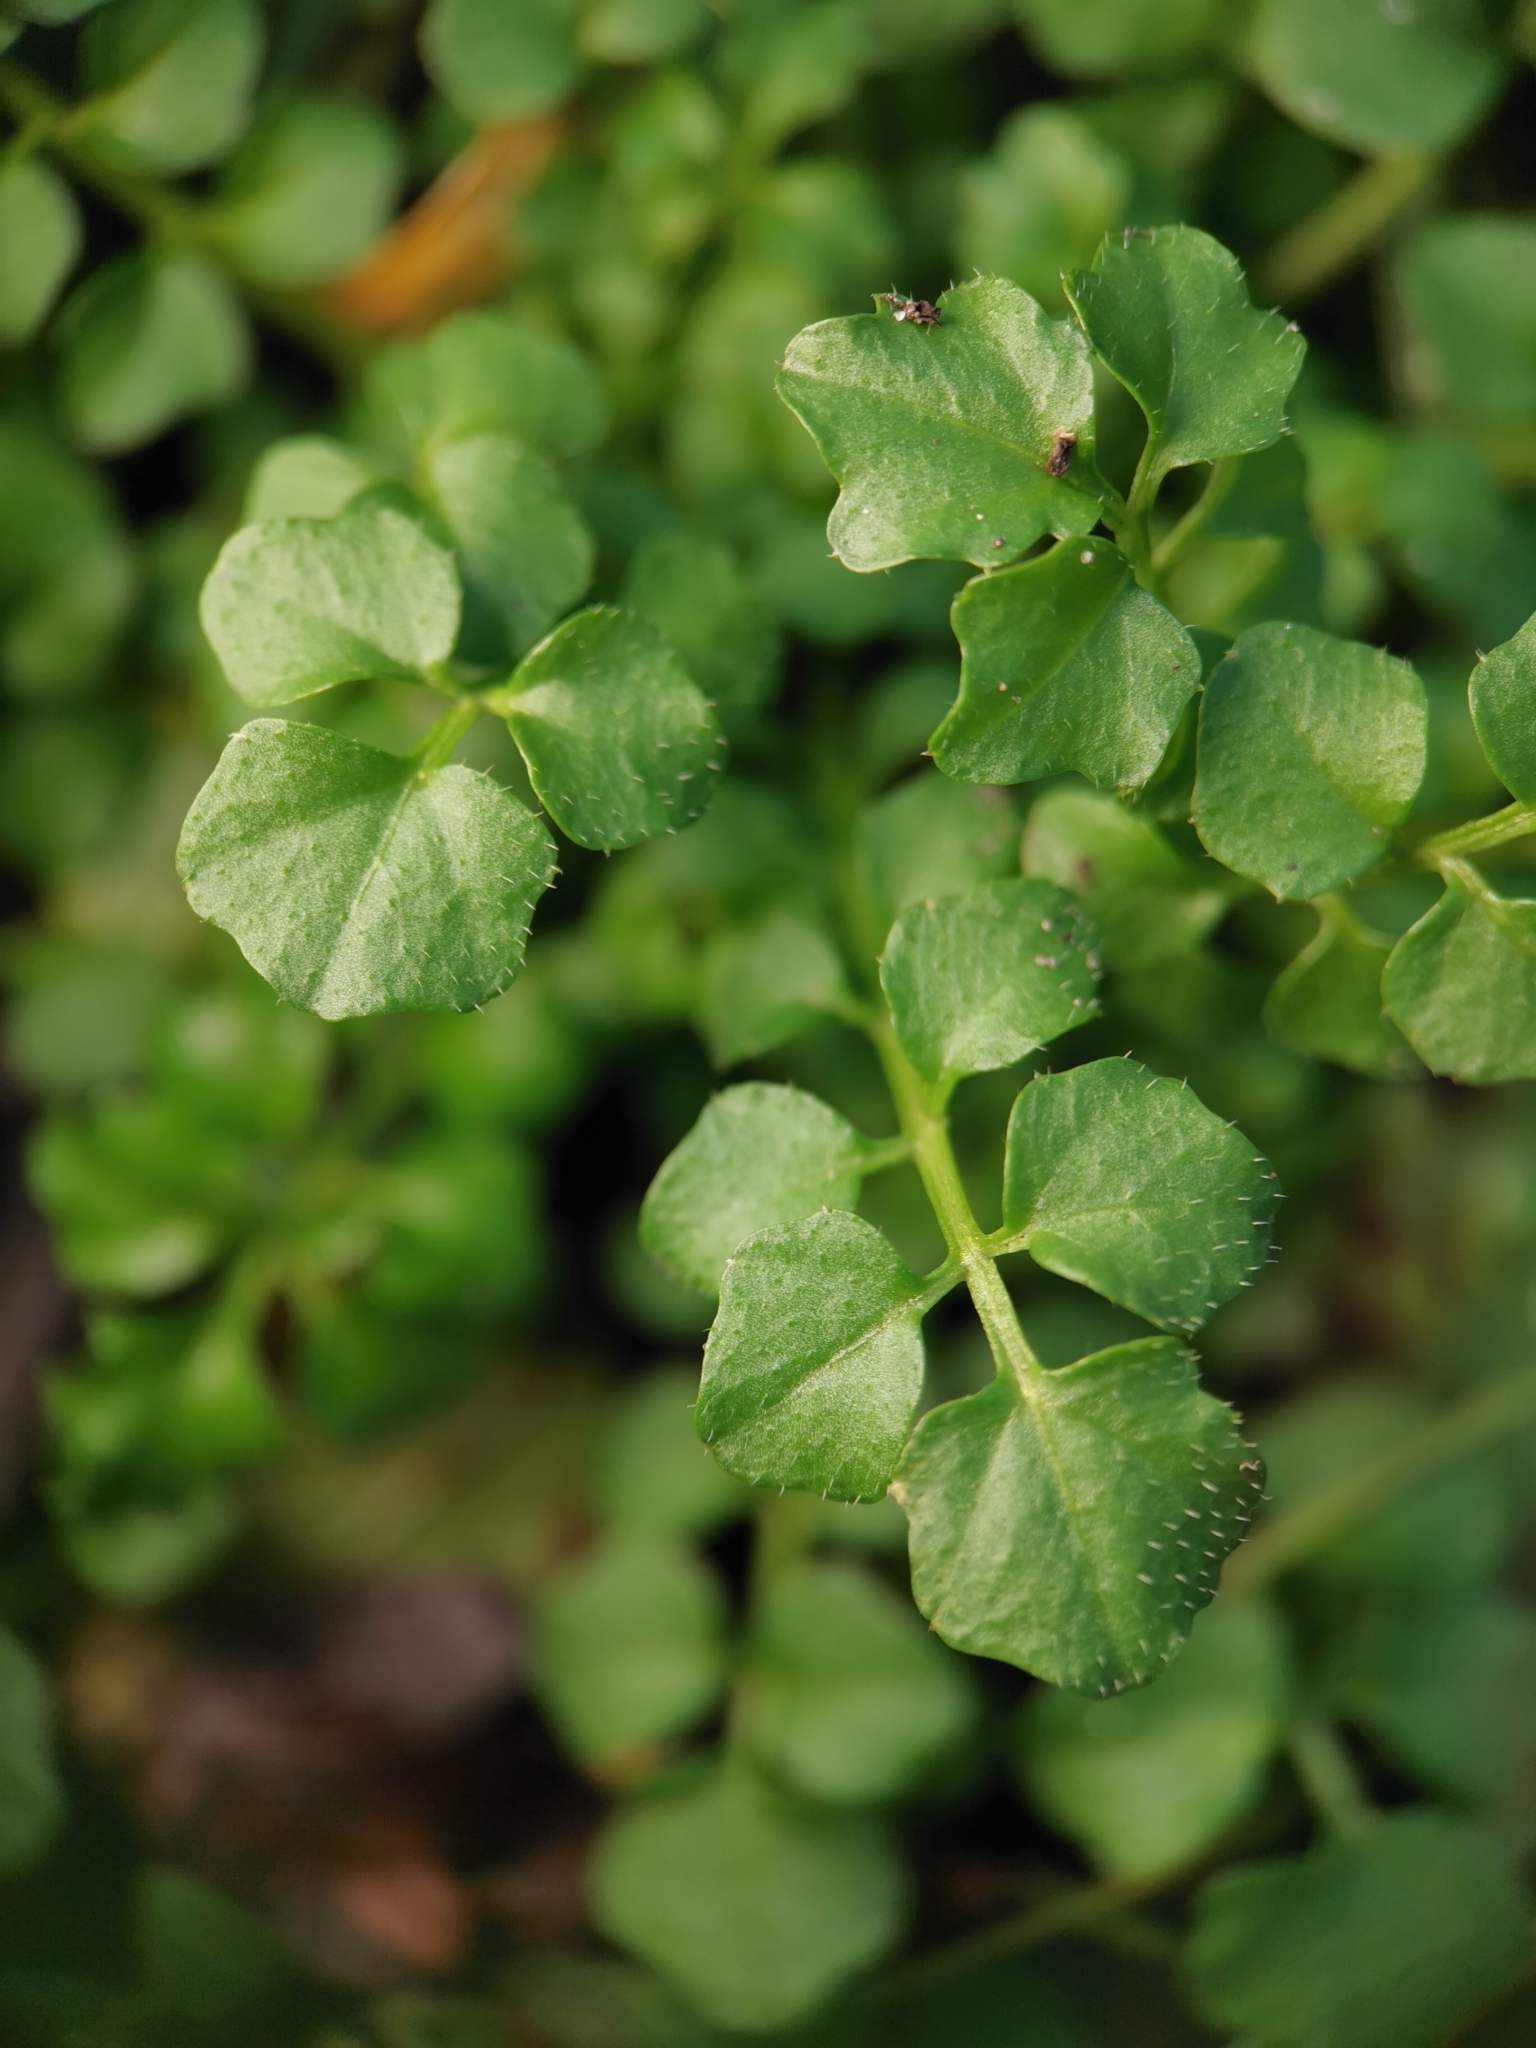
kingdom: Plantae
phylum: Tracheophyta
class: Magnoliopsida
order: Brassicales
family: Brassicaceae
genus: Cardamine
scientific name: Cardamine hirsuta
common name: Hairy bittercress
